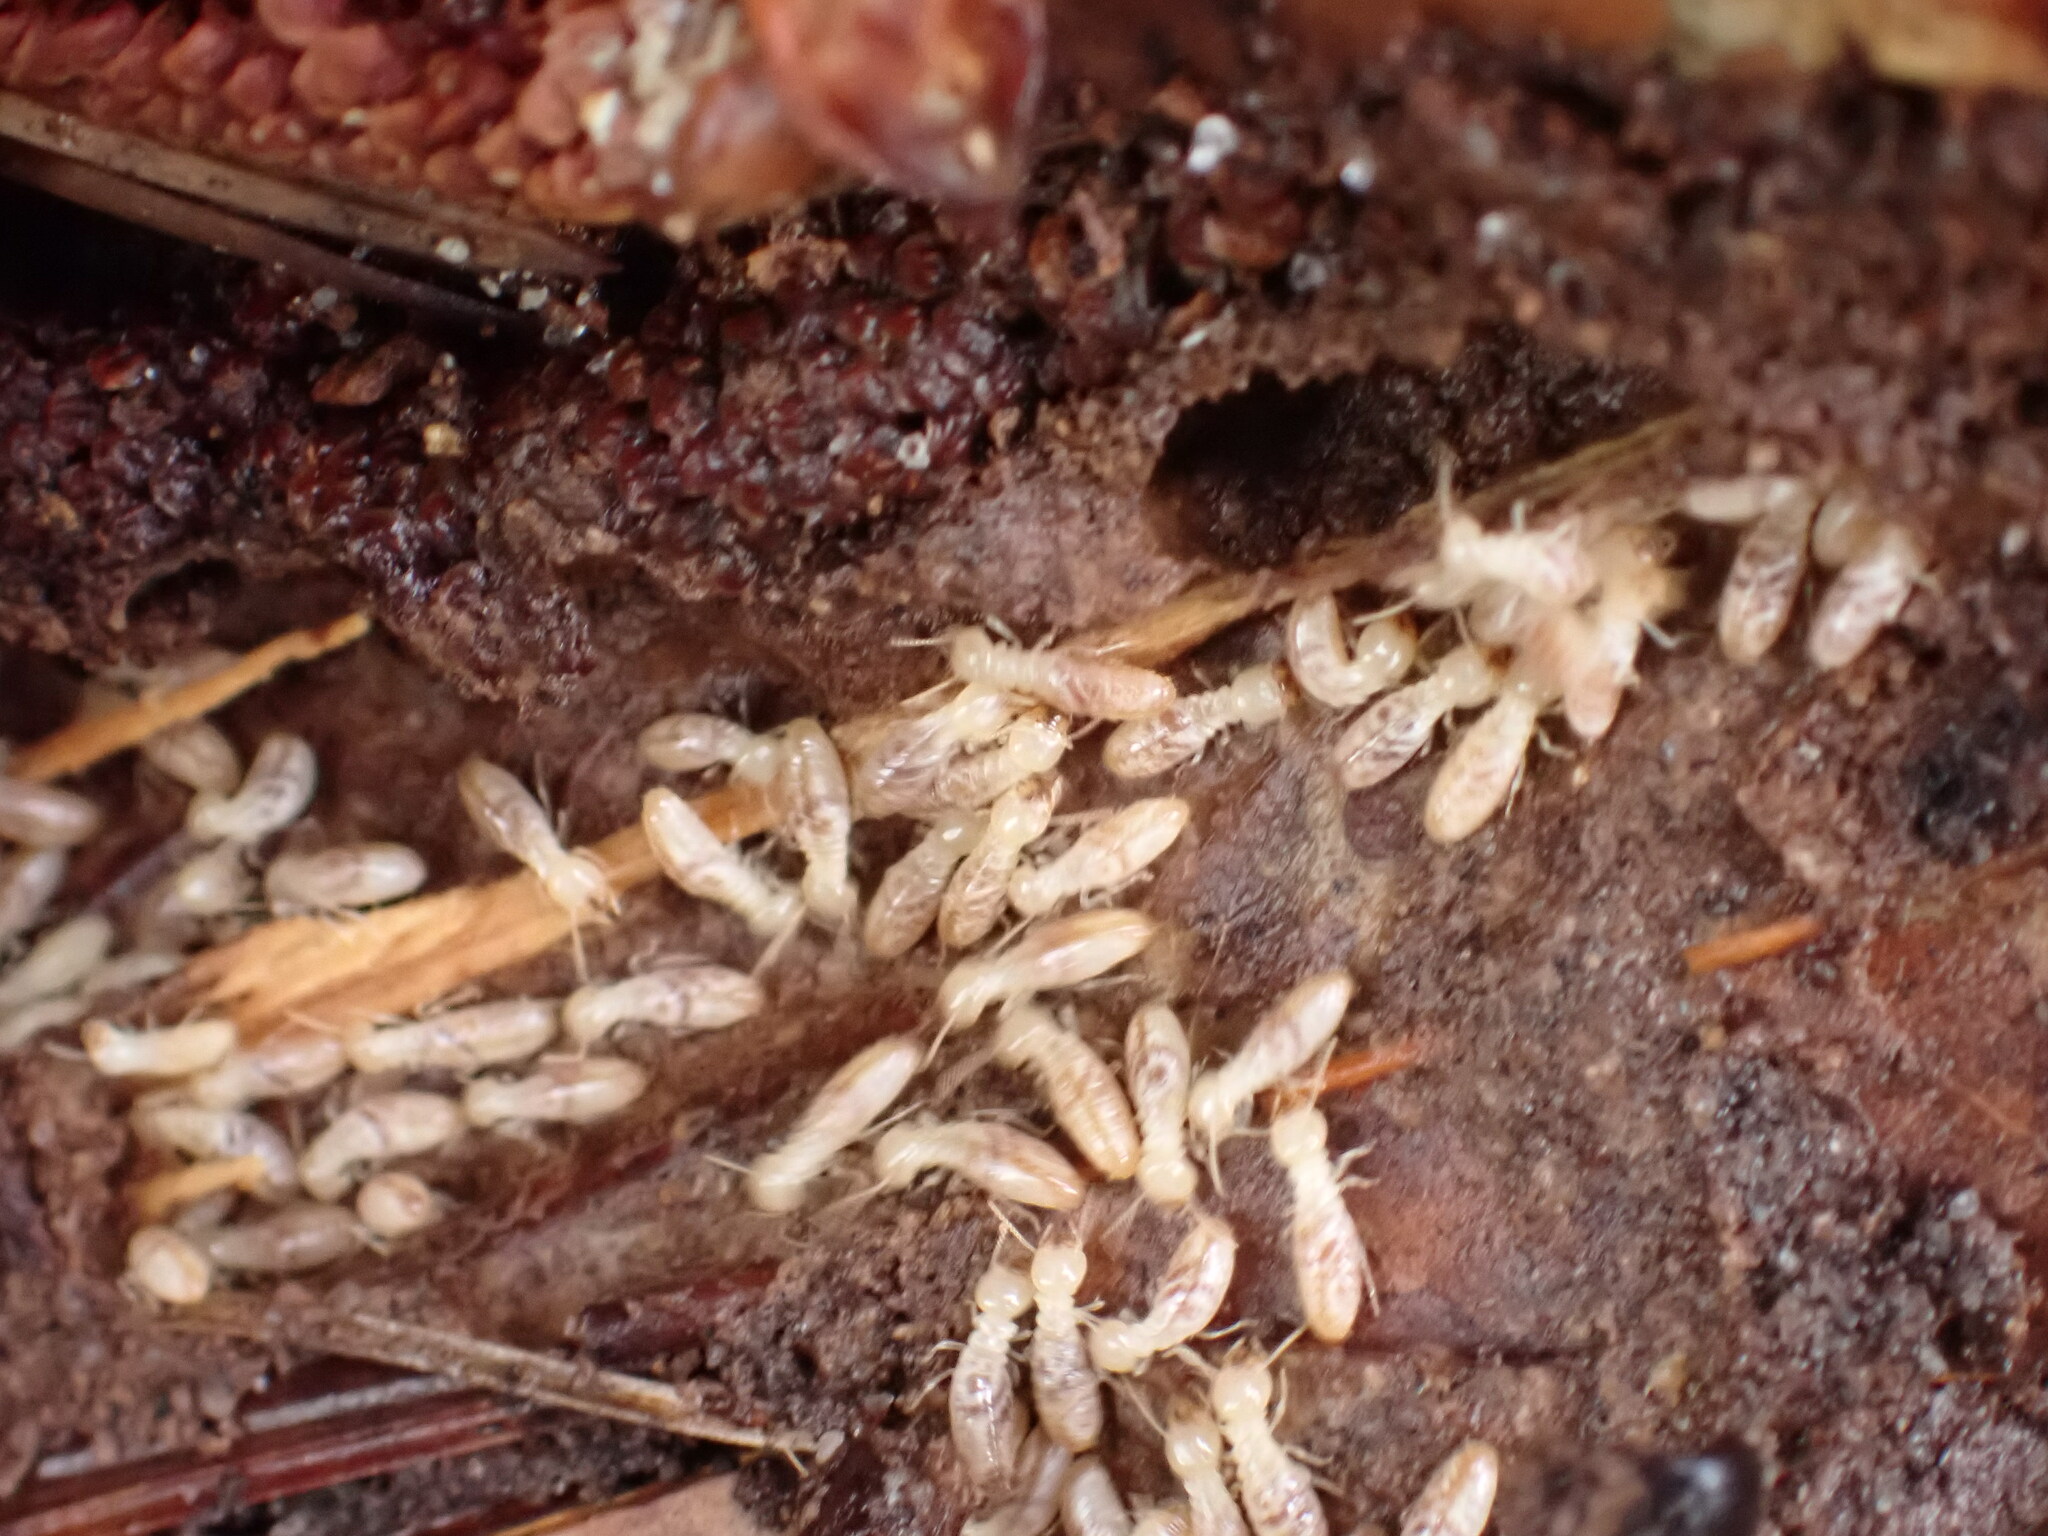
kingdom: Animalia
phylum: Arthropoda
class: Insecta
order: Blattodea
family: Rhinotermitidae
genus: Reticulitermes
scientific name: Reticulitermes flavipes
